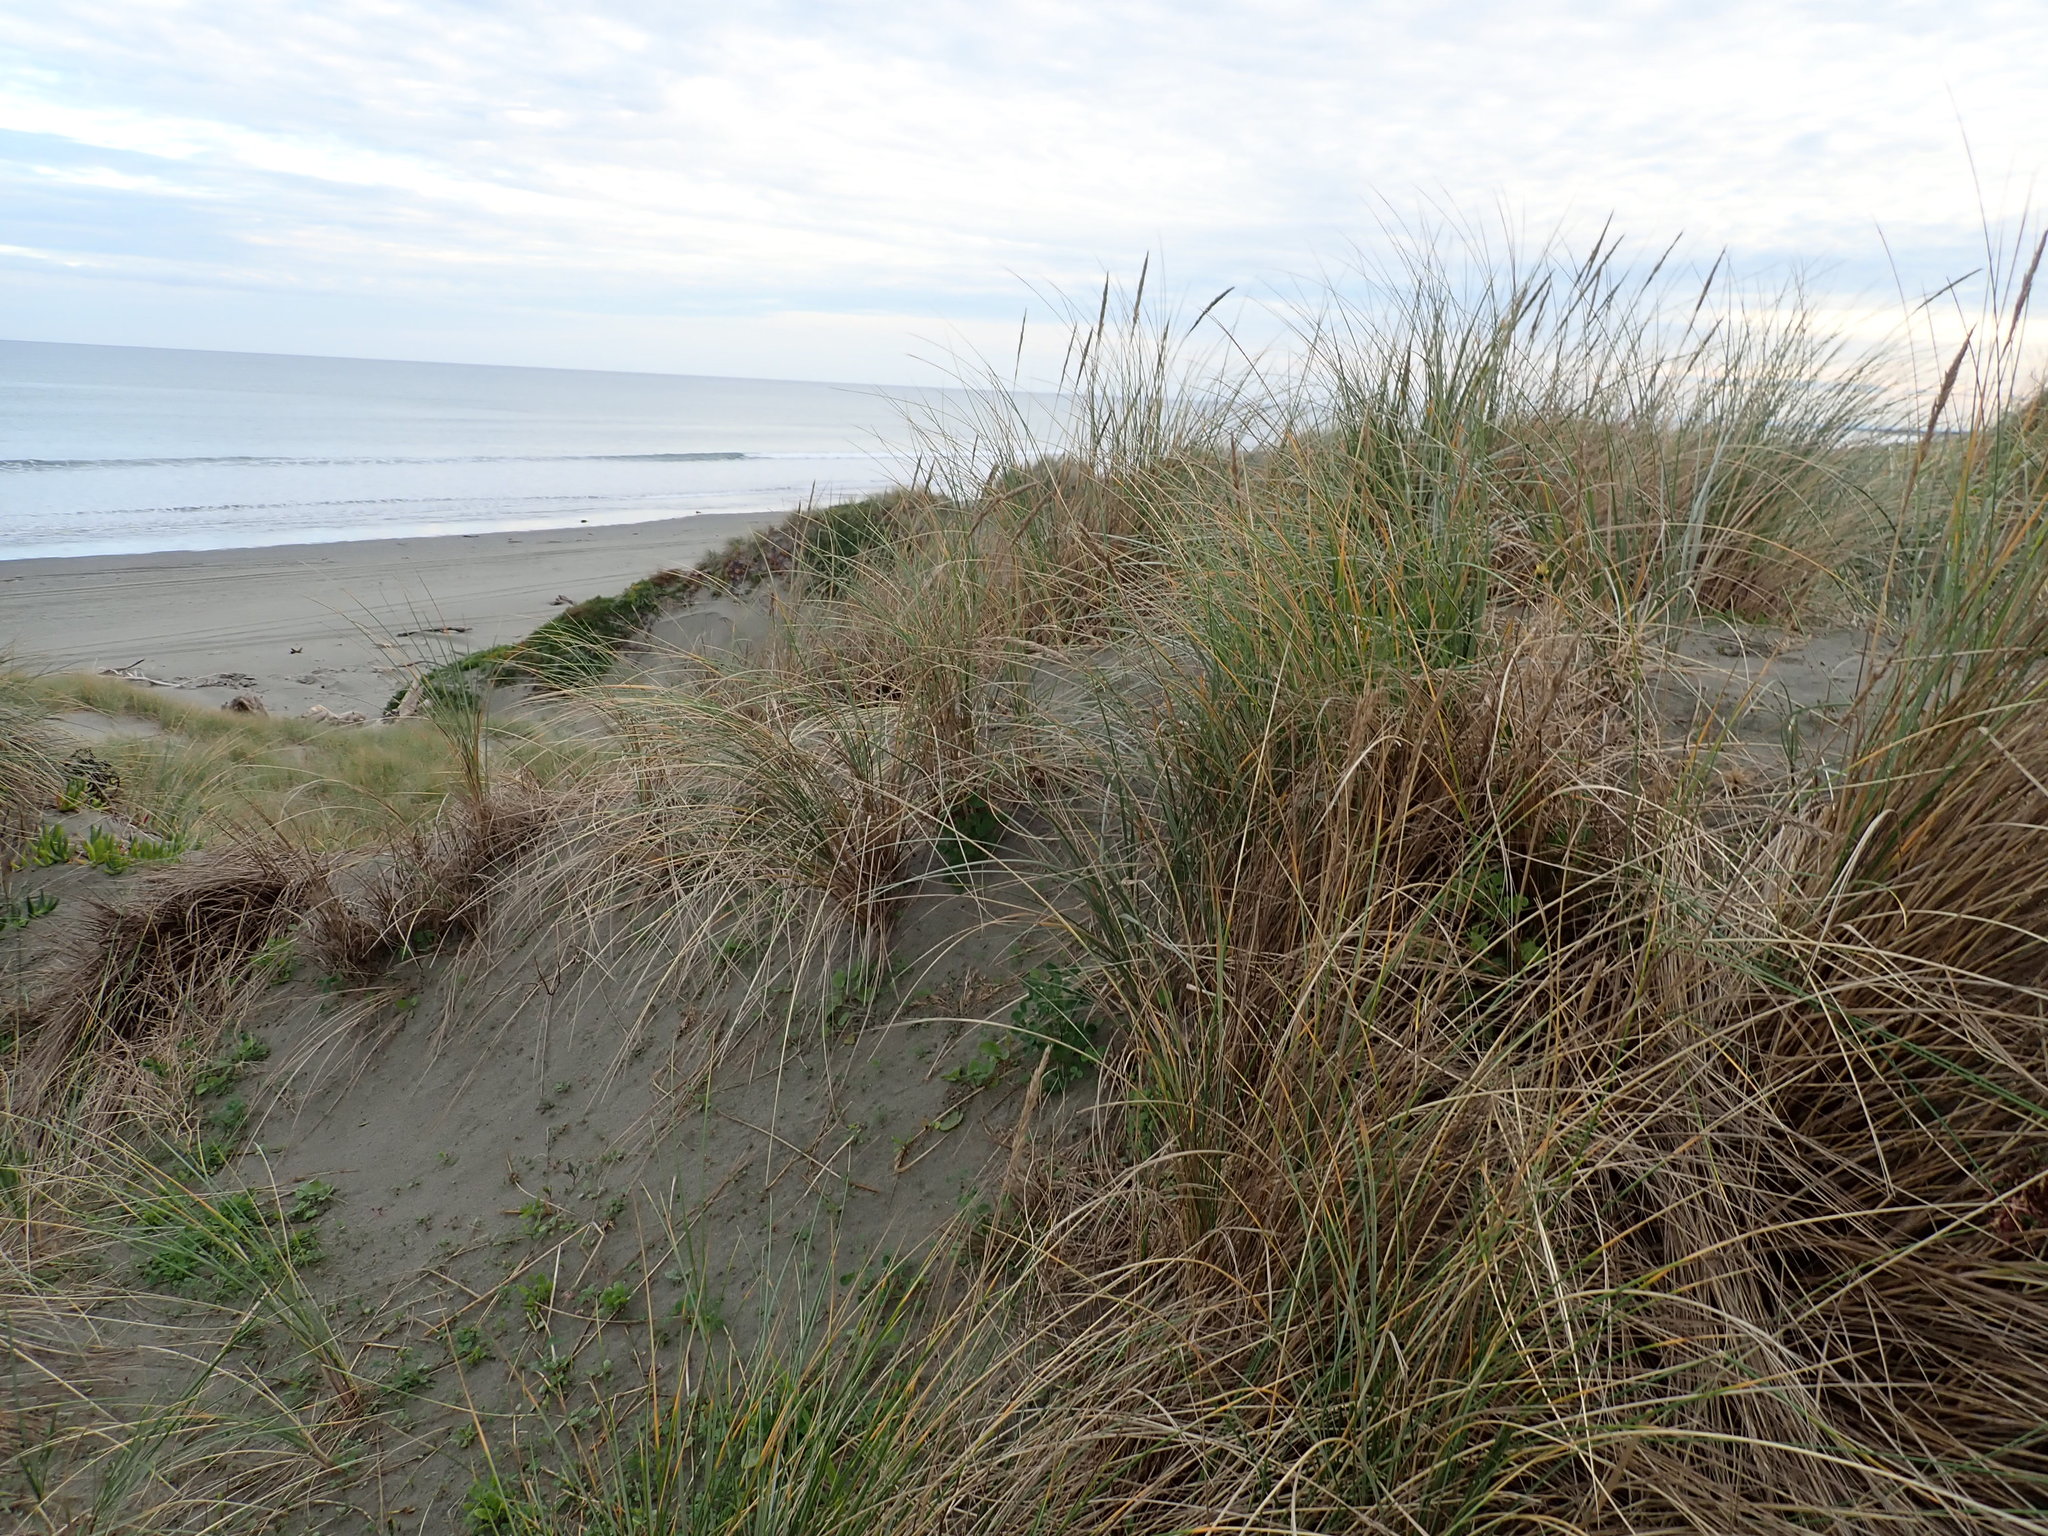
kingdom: Plantae
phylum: Tracheophyta
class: Liliopsida
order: Poales
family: Poaceae
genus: Calamagrostis
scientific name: Calamagrostis arenaria
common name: European beachgrass
